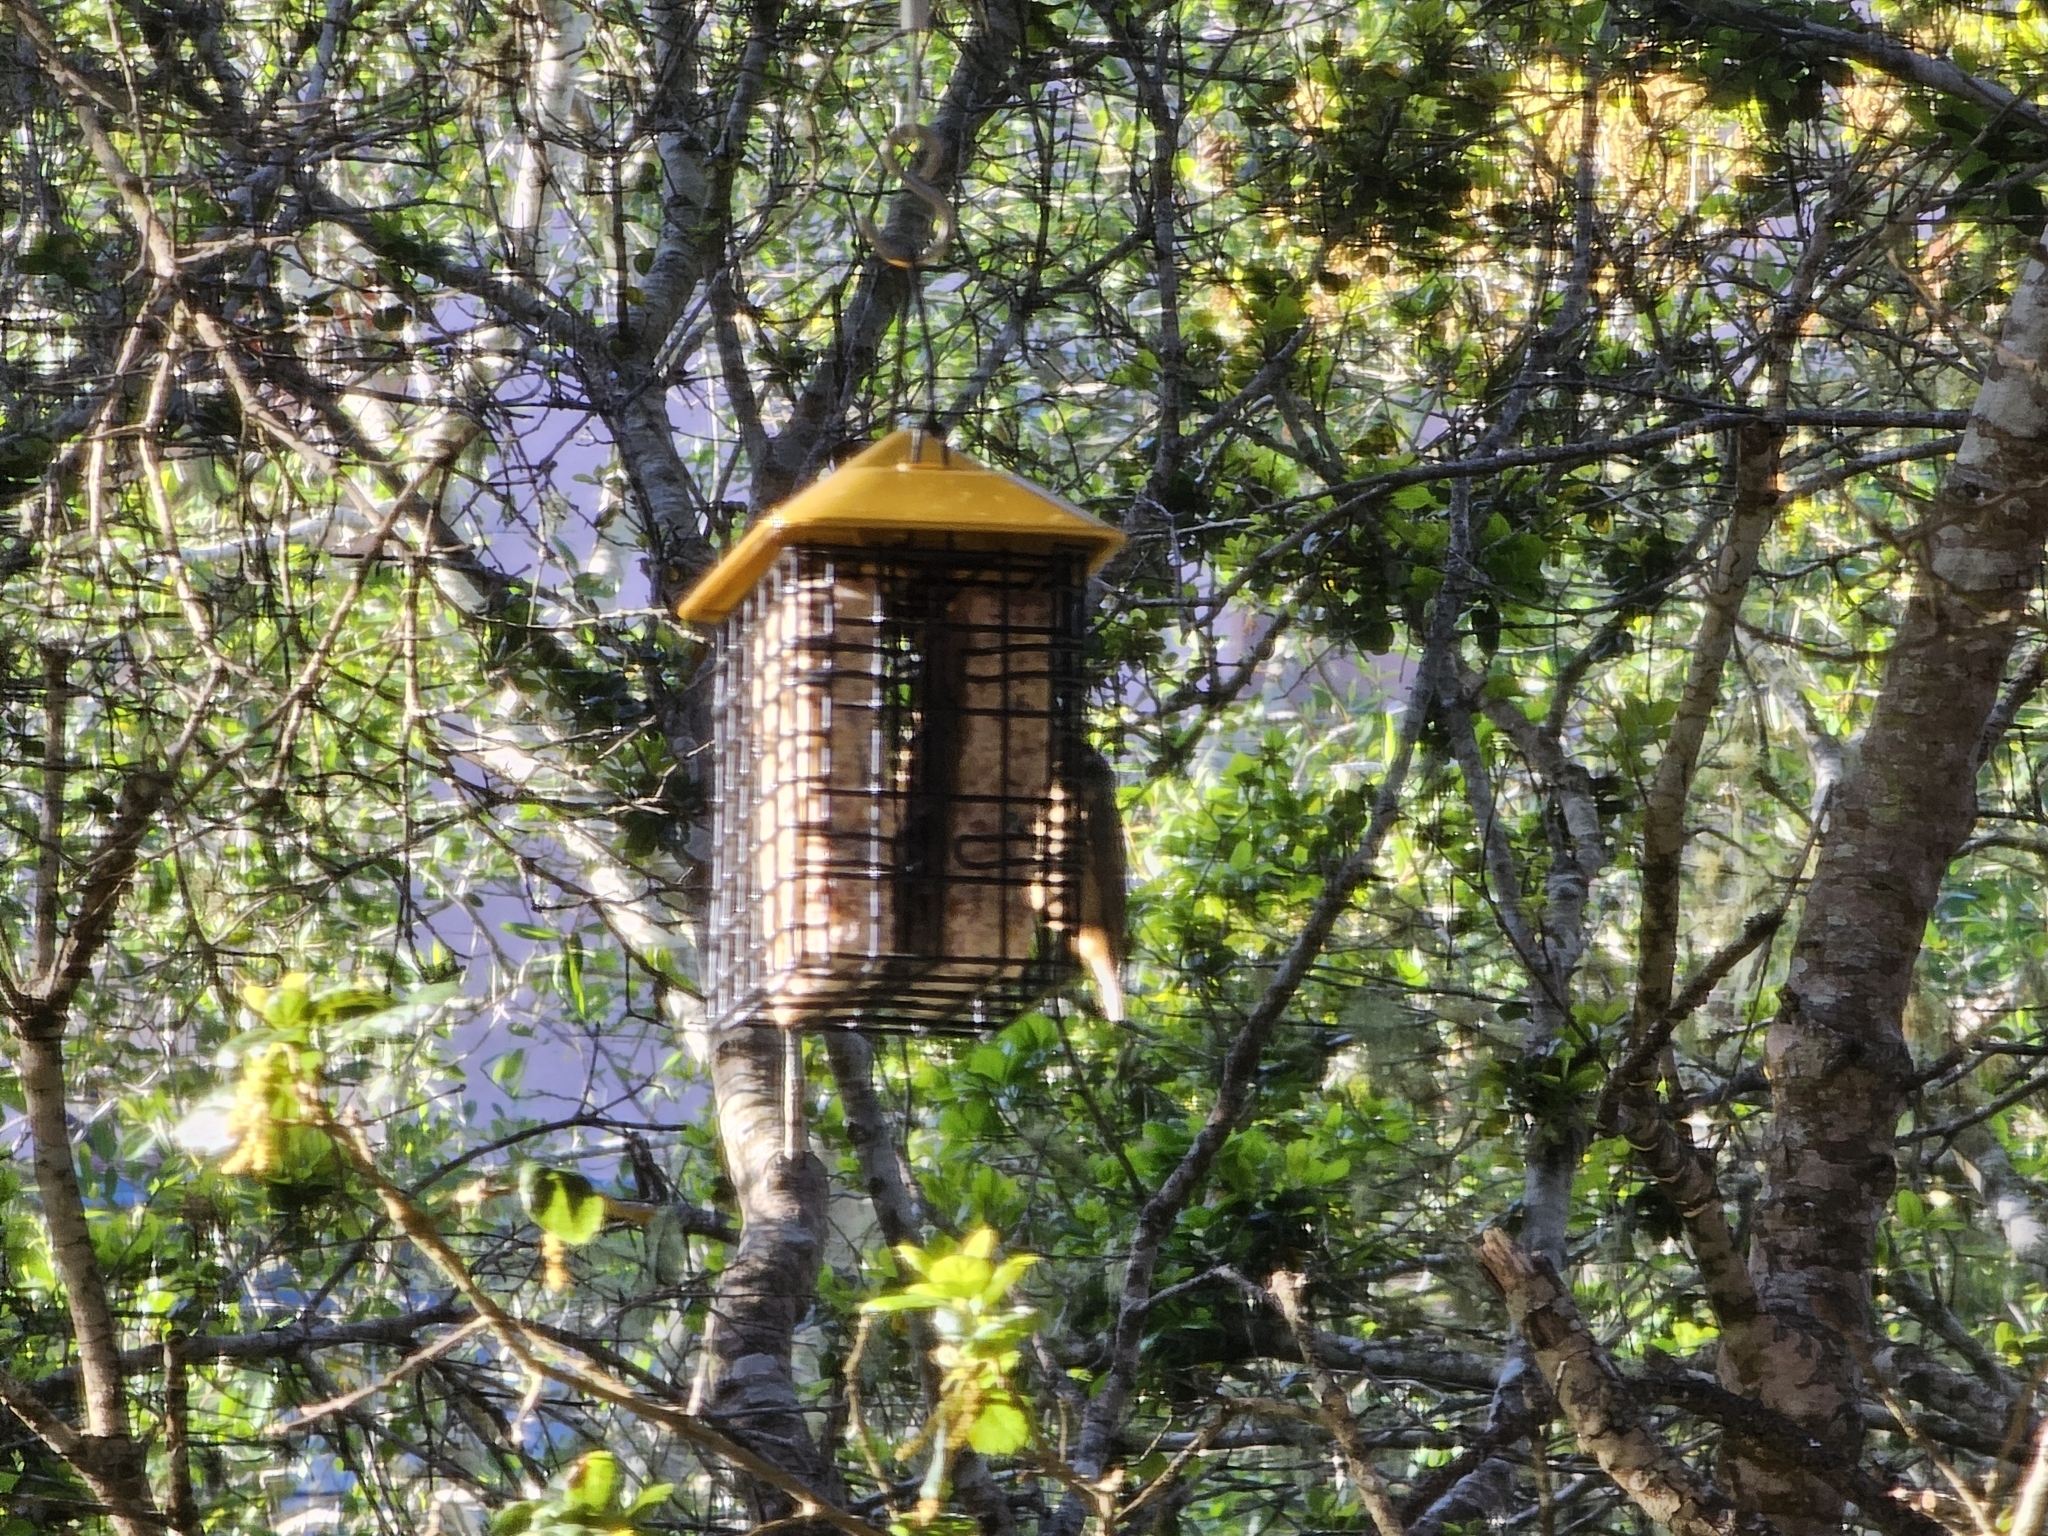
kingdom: Animalia
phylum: Chordata
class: Aves
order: Passeriformes
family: Sittidae
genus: Sitta
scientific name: Sitta canadensis
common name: Red-breasted nuthatch
